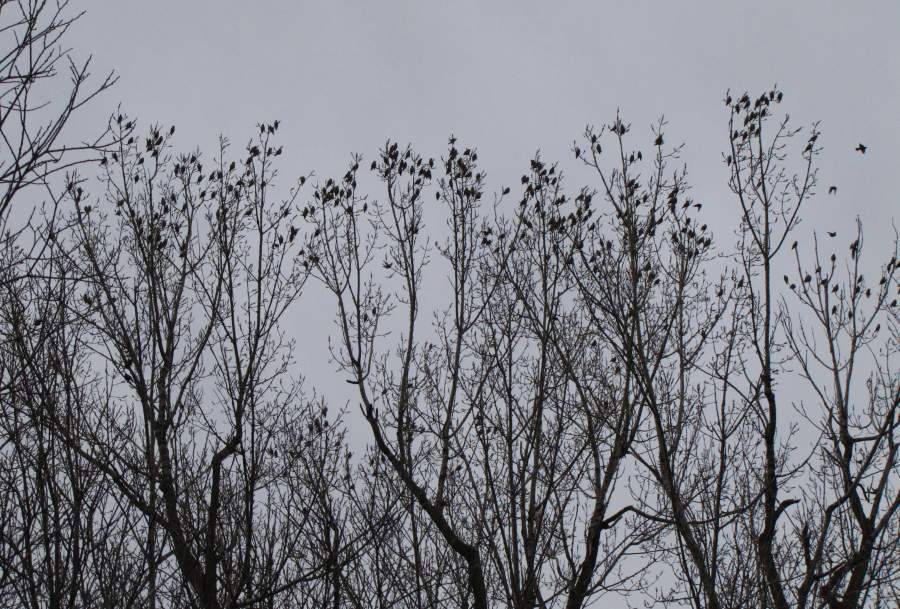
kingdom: Animalia
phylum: Chordata
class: Aves
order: Passeriformes
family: Bombycillidae
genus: Bombycilla
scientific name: Bombycilla garrulus
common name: Bohemian waxwing
